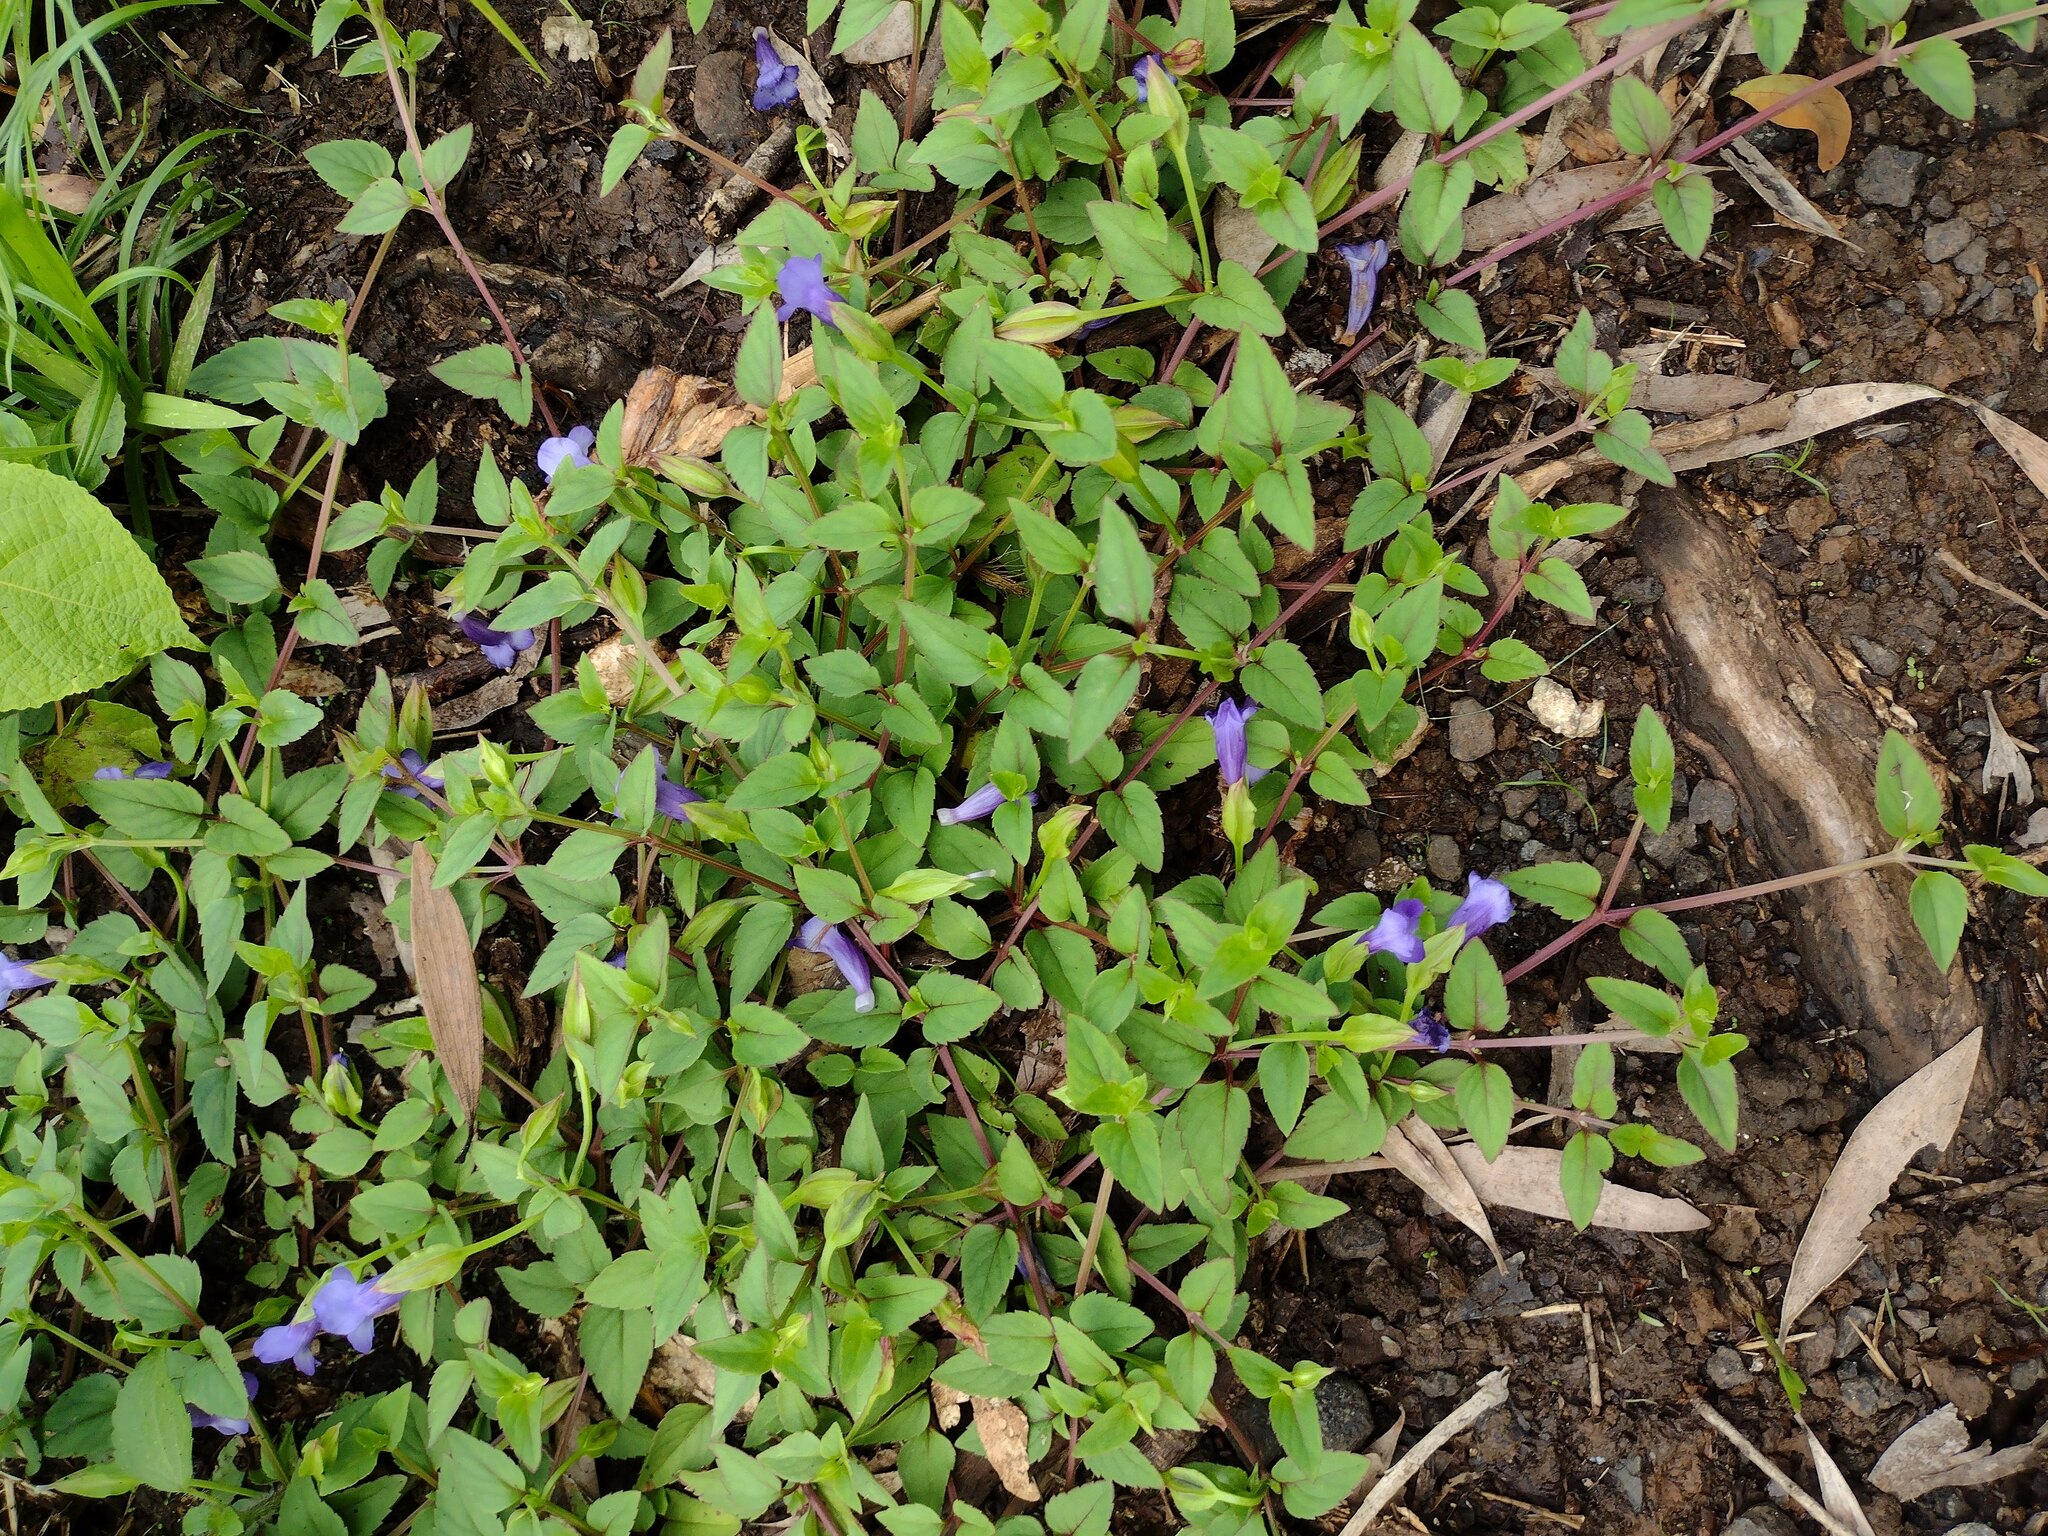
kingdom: Plantae
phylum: Tracheophyta
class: Magnoliopsida
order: Lamiales
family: Linderniaceae
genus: Torenia
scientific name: Torenia asiatica
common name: Wishbone flower
